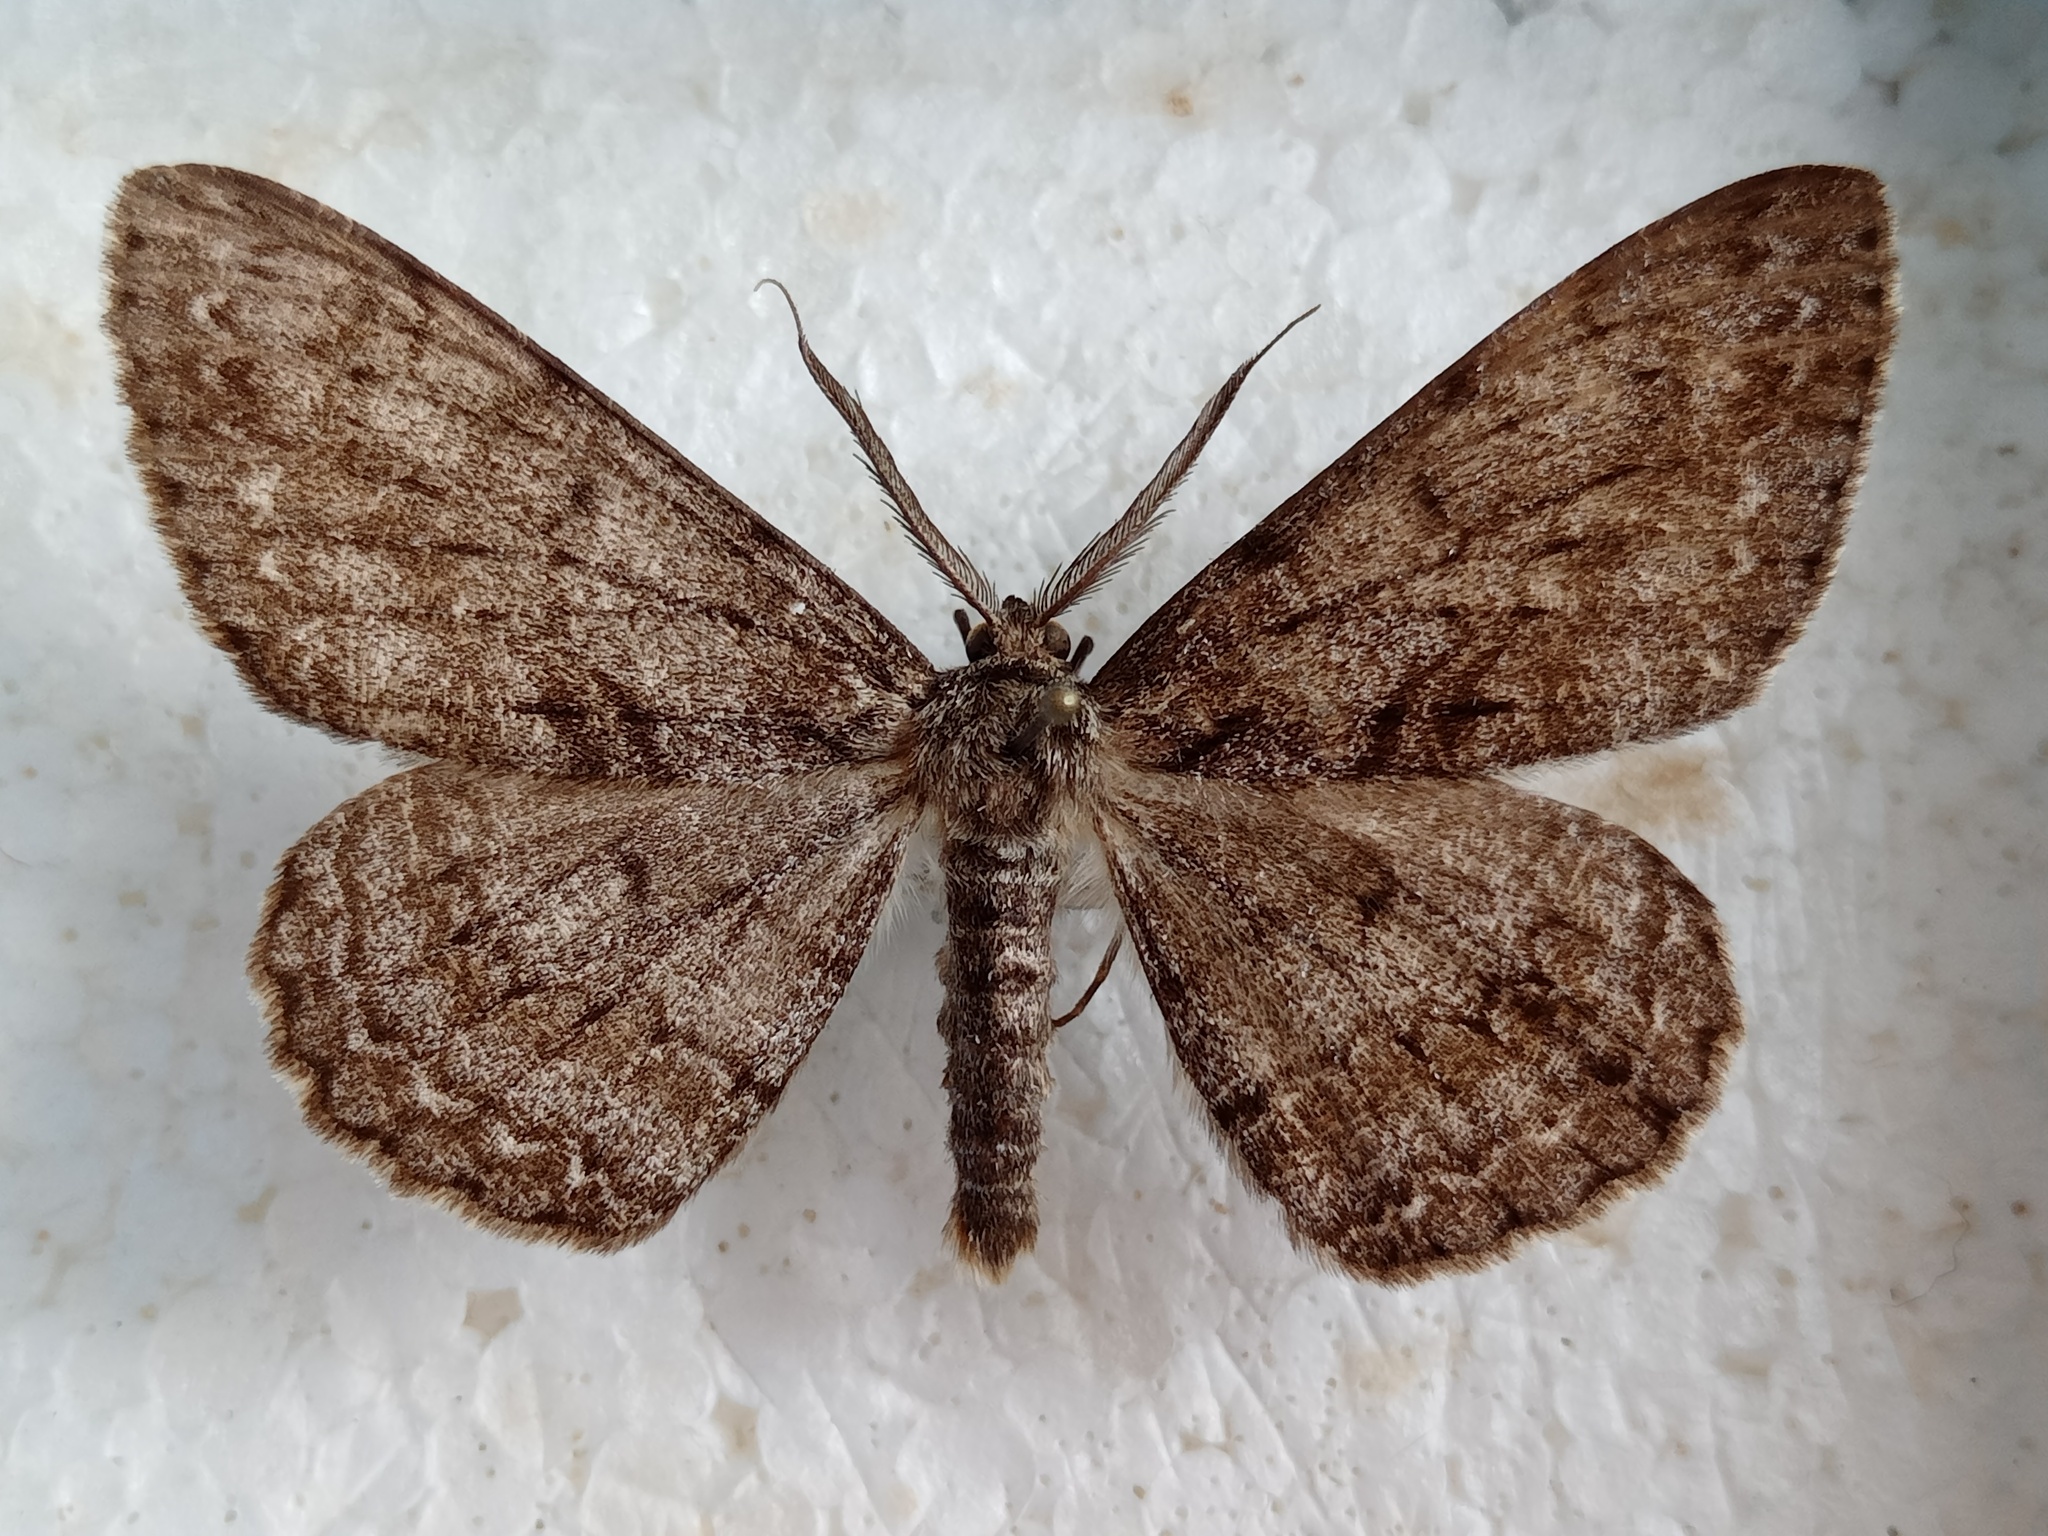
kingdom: Animalia
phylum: Arthropoda
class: Insecta
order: Lepidoptera
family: Geometridae
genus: Hypomecis
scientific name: Hypomecis roboraria
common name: Great oak beauty
